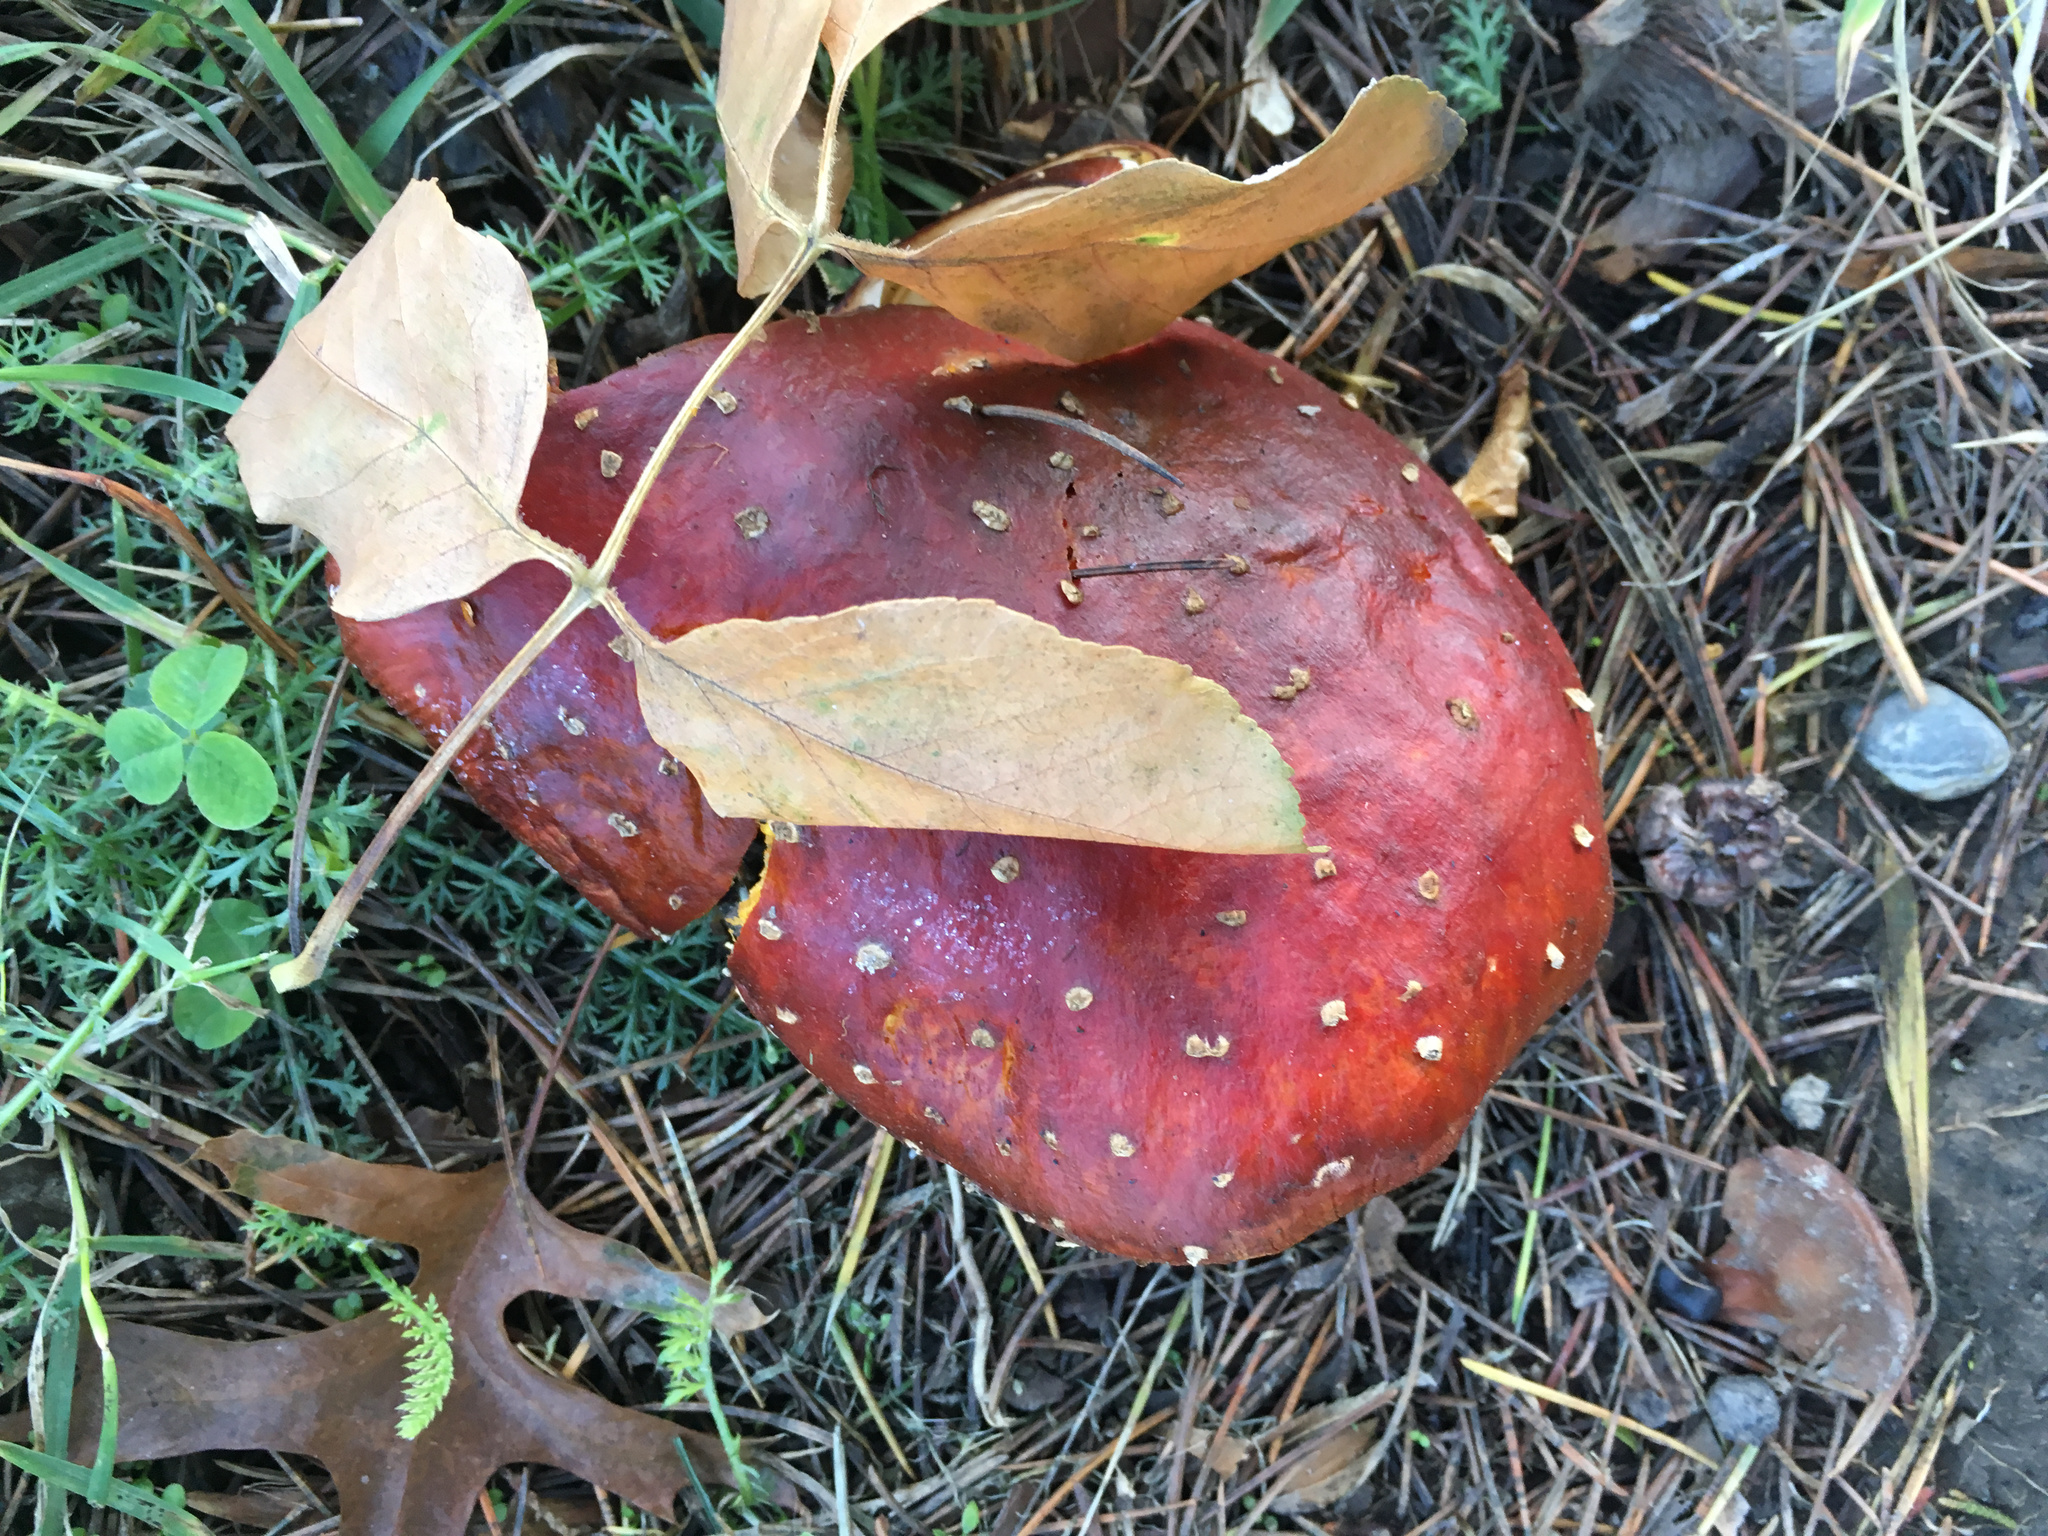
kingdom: Fungi
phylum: Basidiomycota
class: Agaricomycetes
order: Agaricales
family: Amanitaceae
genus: Amanita
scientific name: Amanita muscaria
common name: Fly agaric
